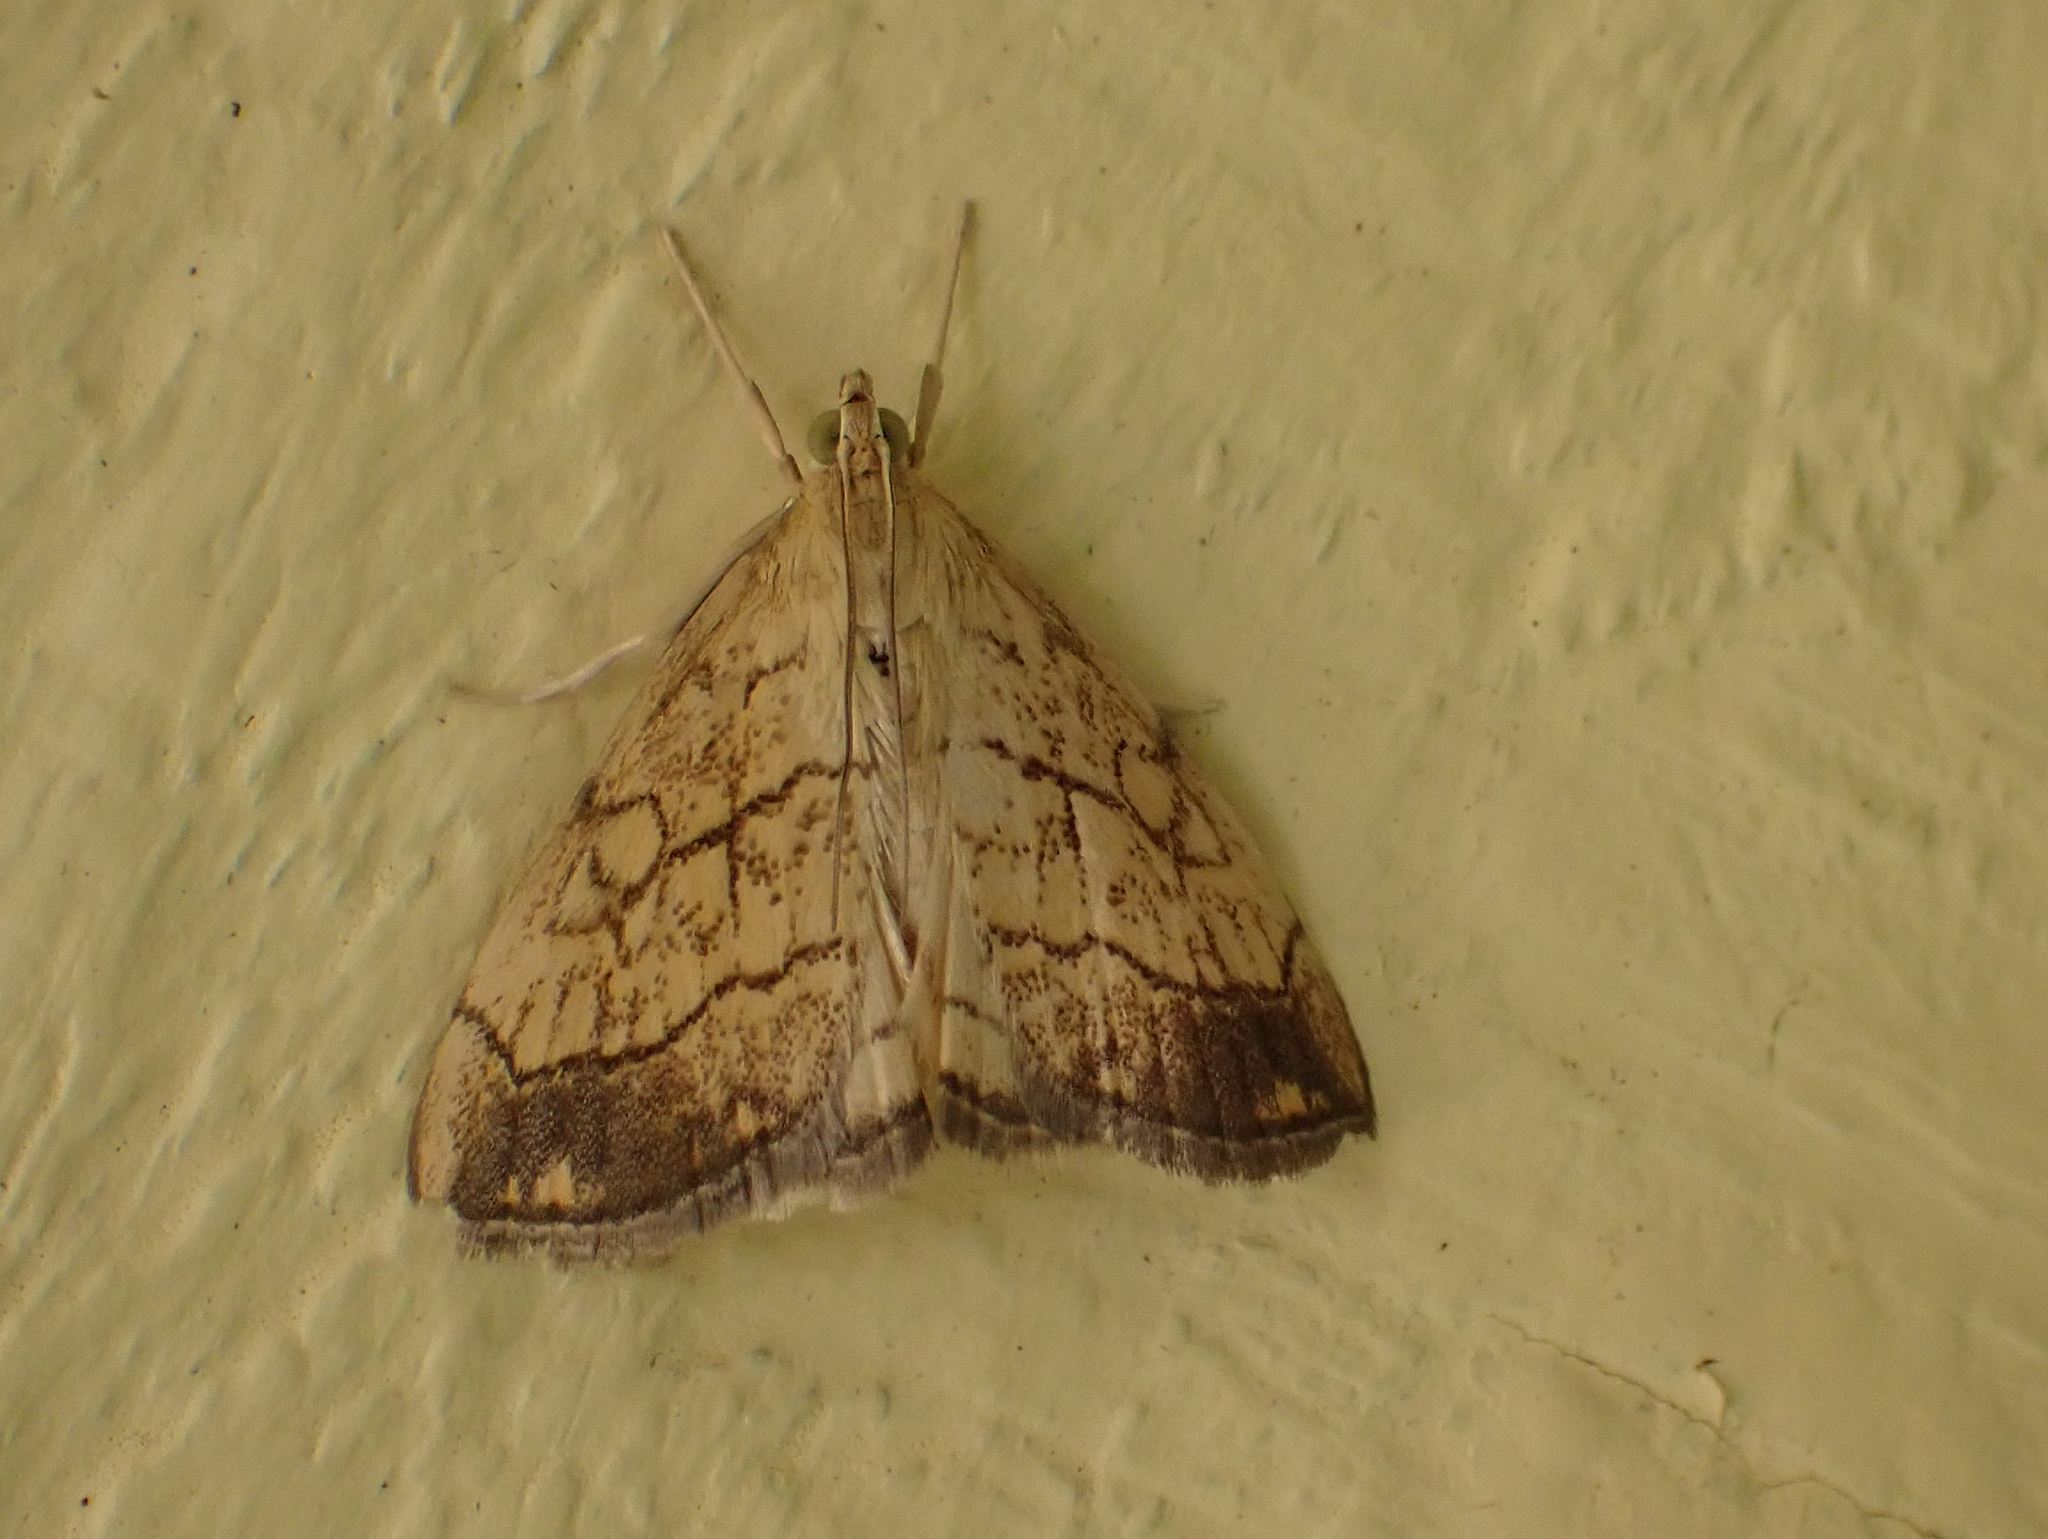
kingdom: Animalia
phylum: Arthropoda
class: Insecta
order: Lepidoptera
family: Crambidae
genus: Evergestis
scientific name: Evergestis pallidata
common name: Chequered pearl
